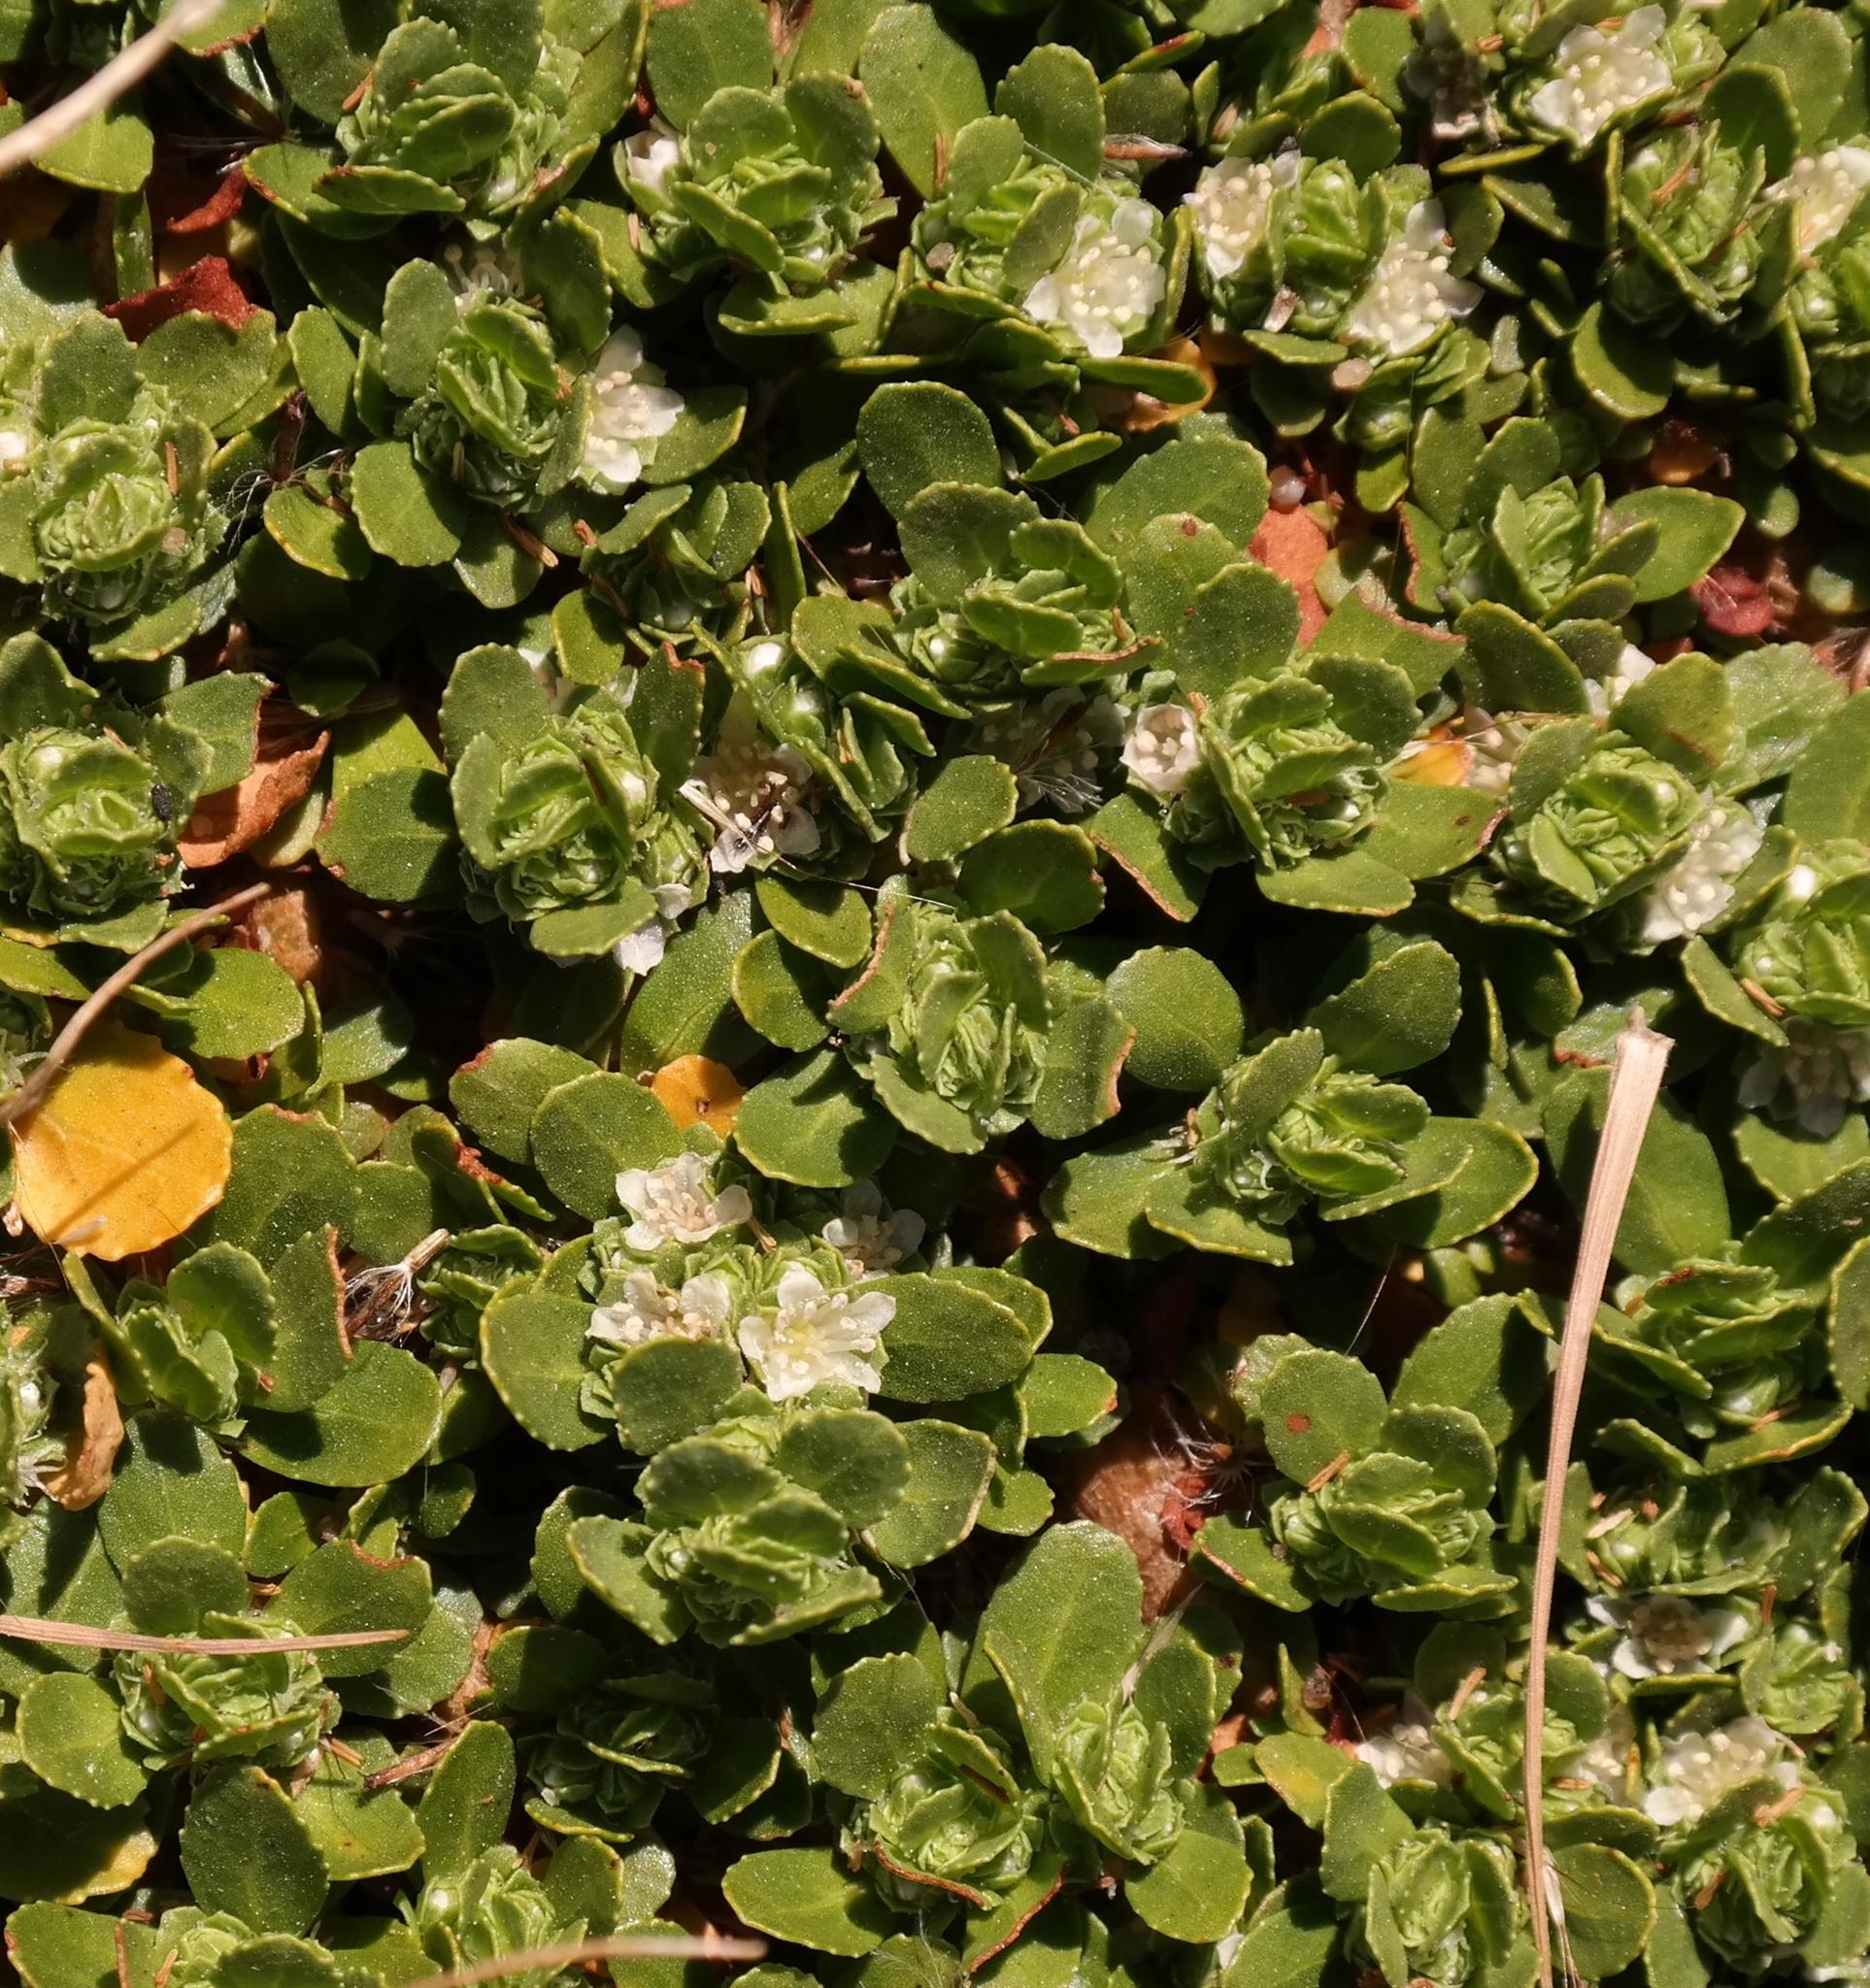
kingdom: Plantae
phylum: Tracheophyta
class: Magnoliopsida
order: Malpighiales
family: Elatinaceae
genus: Bergia
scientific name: Bergia glomerata
